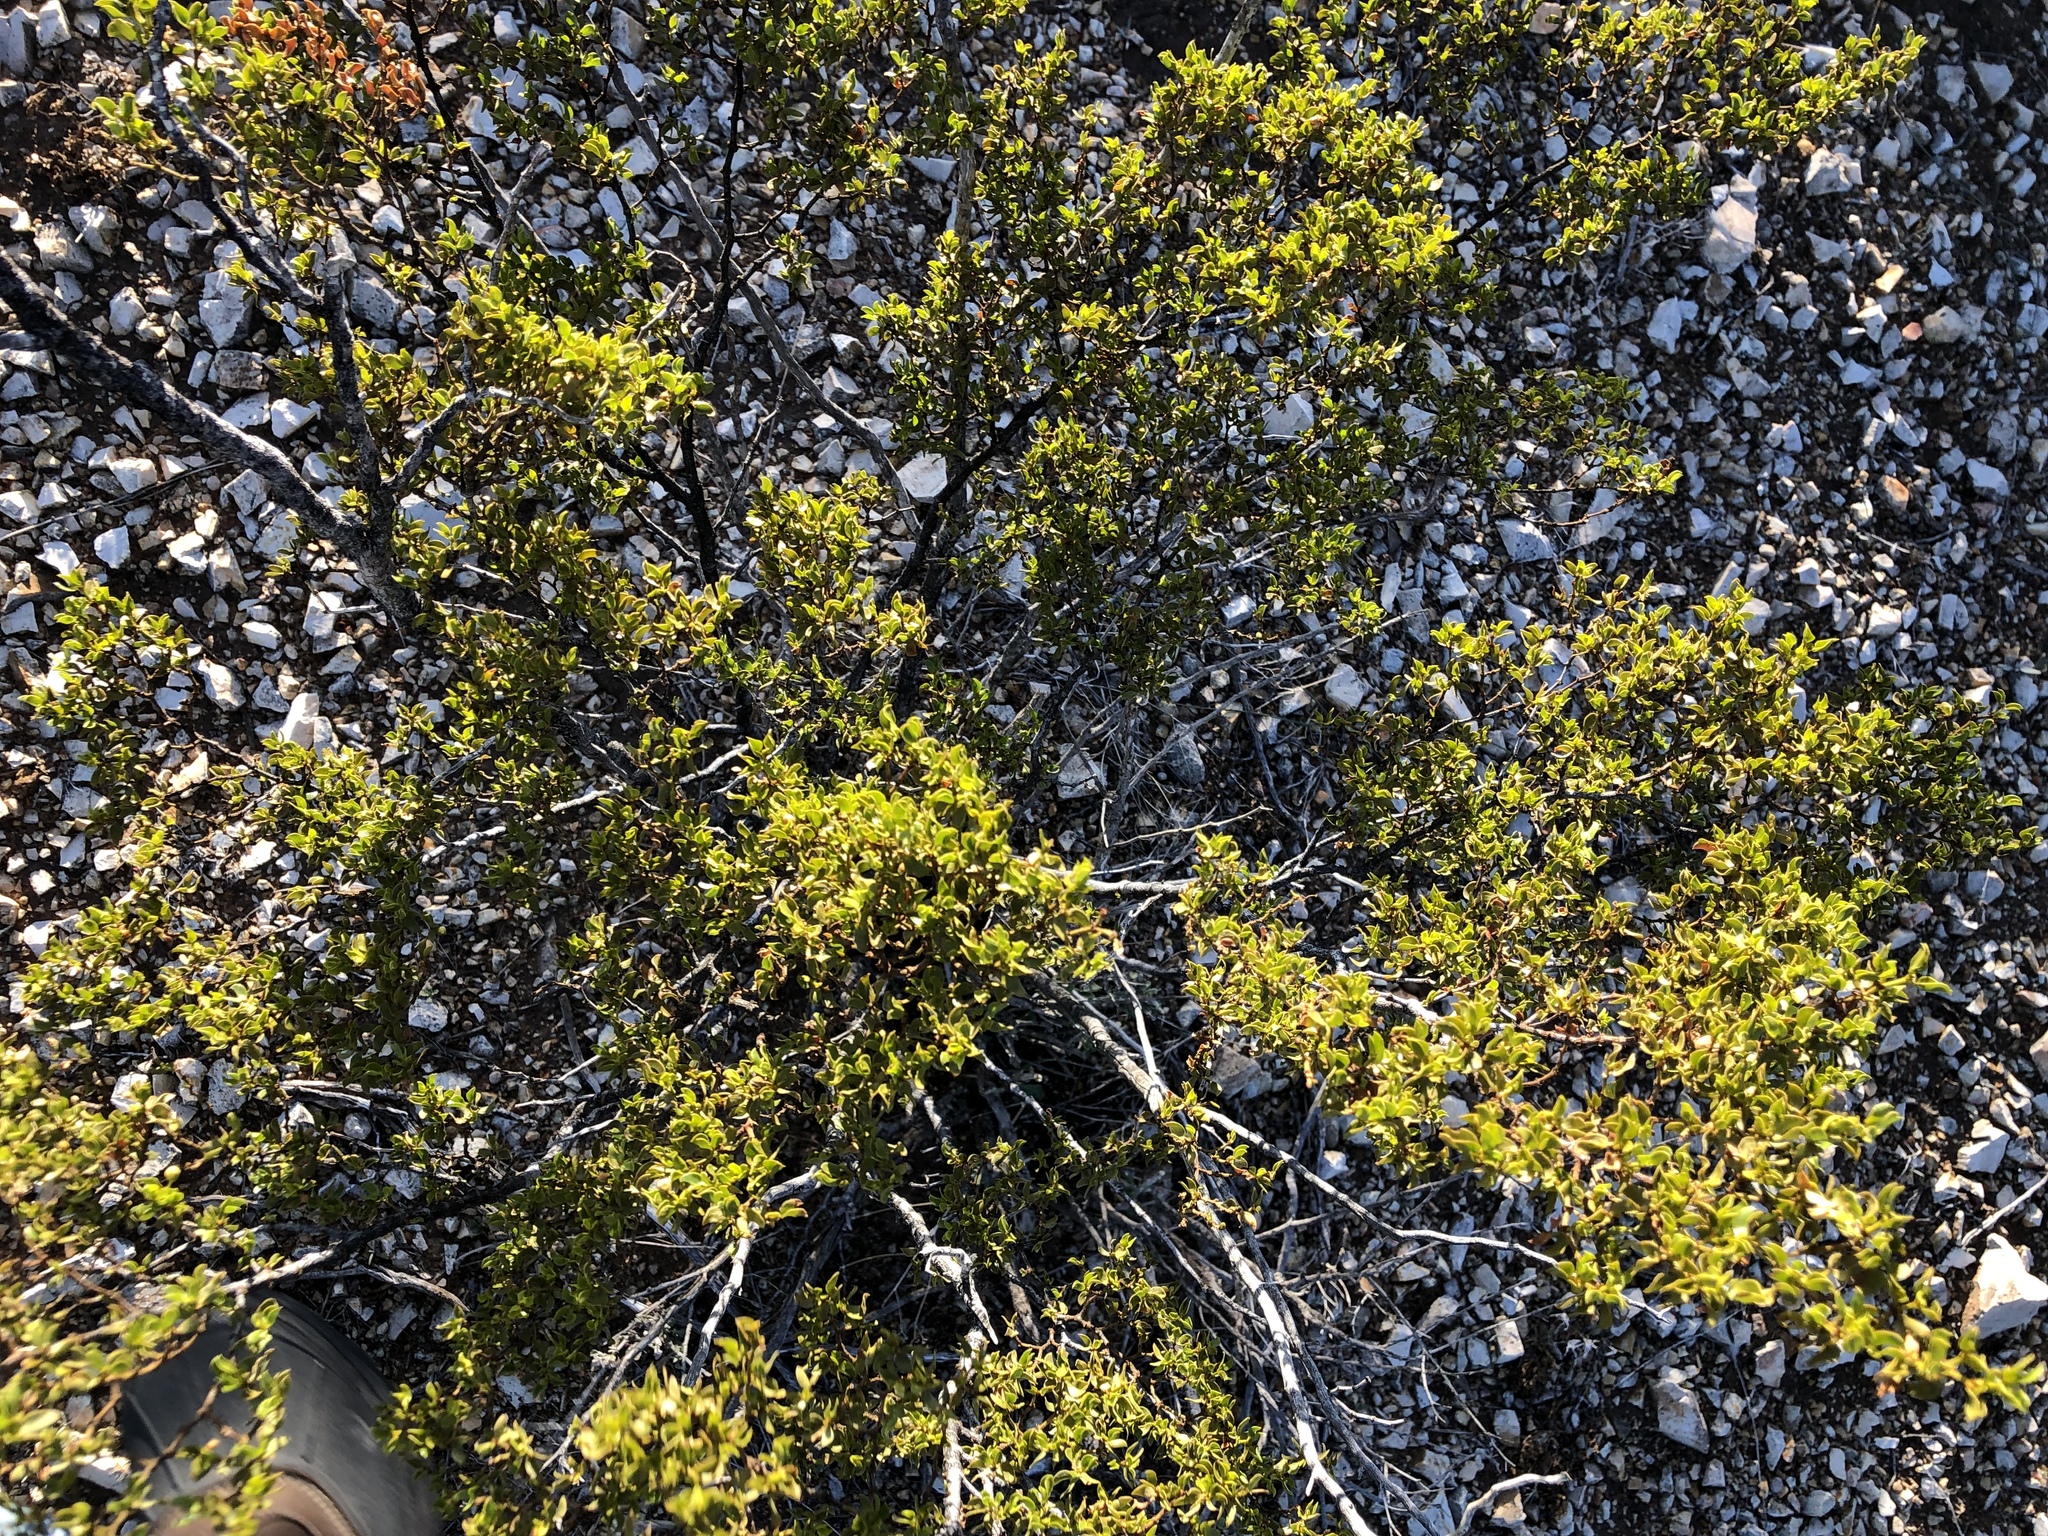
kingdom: Plantae
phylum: Tracheophyta
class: Magnoliopsida
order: Zygophyllales
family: Zygophyllaceae
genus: Larrea
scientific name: Larrea tridentata
